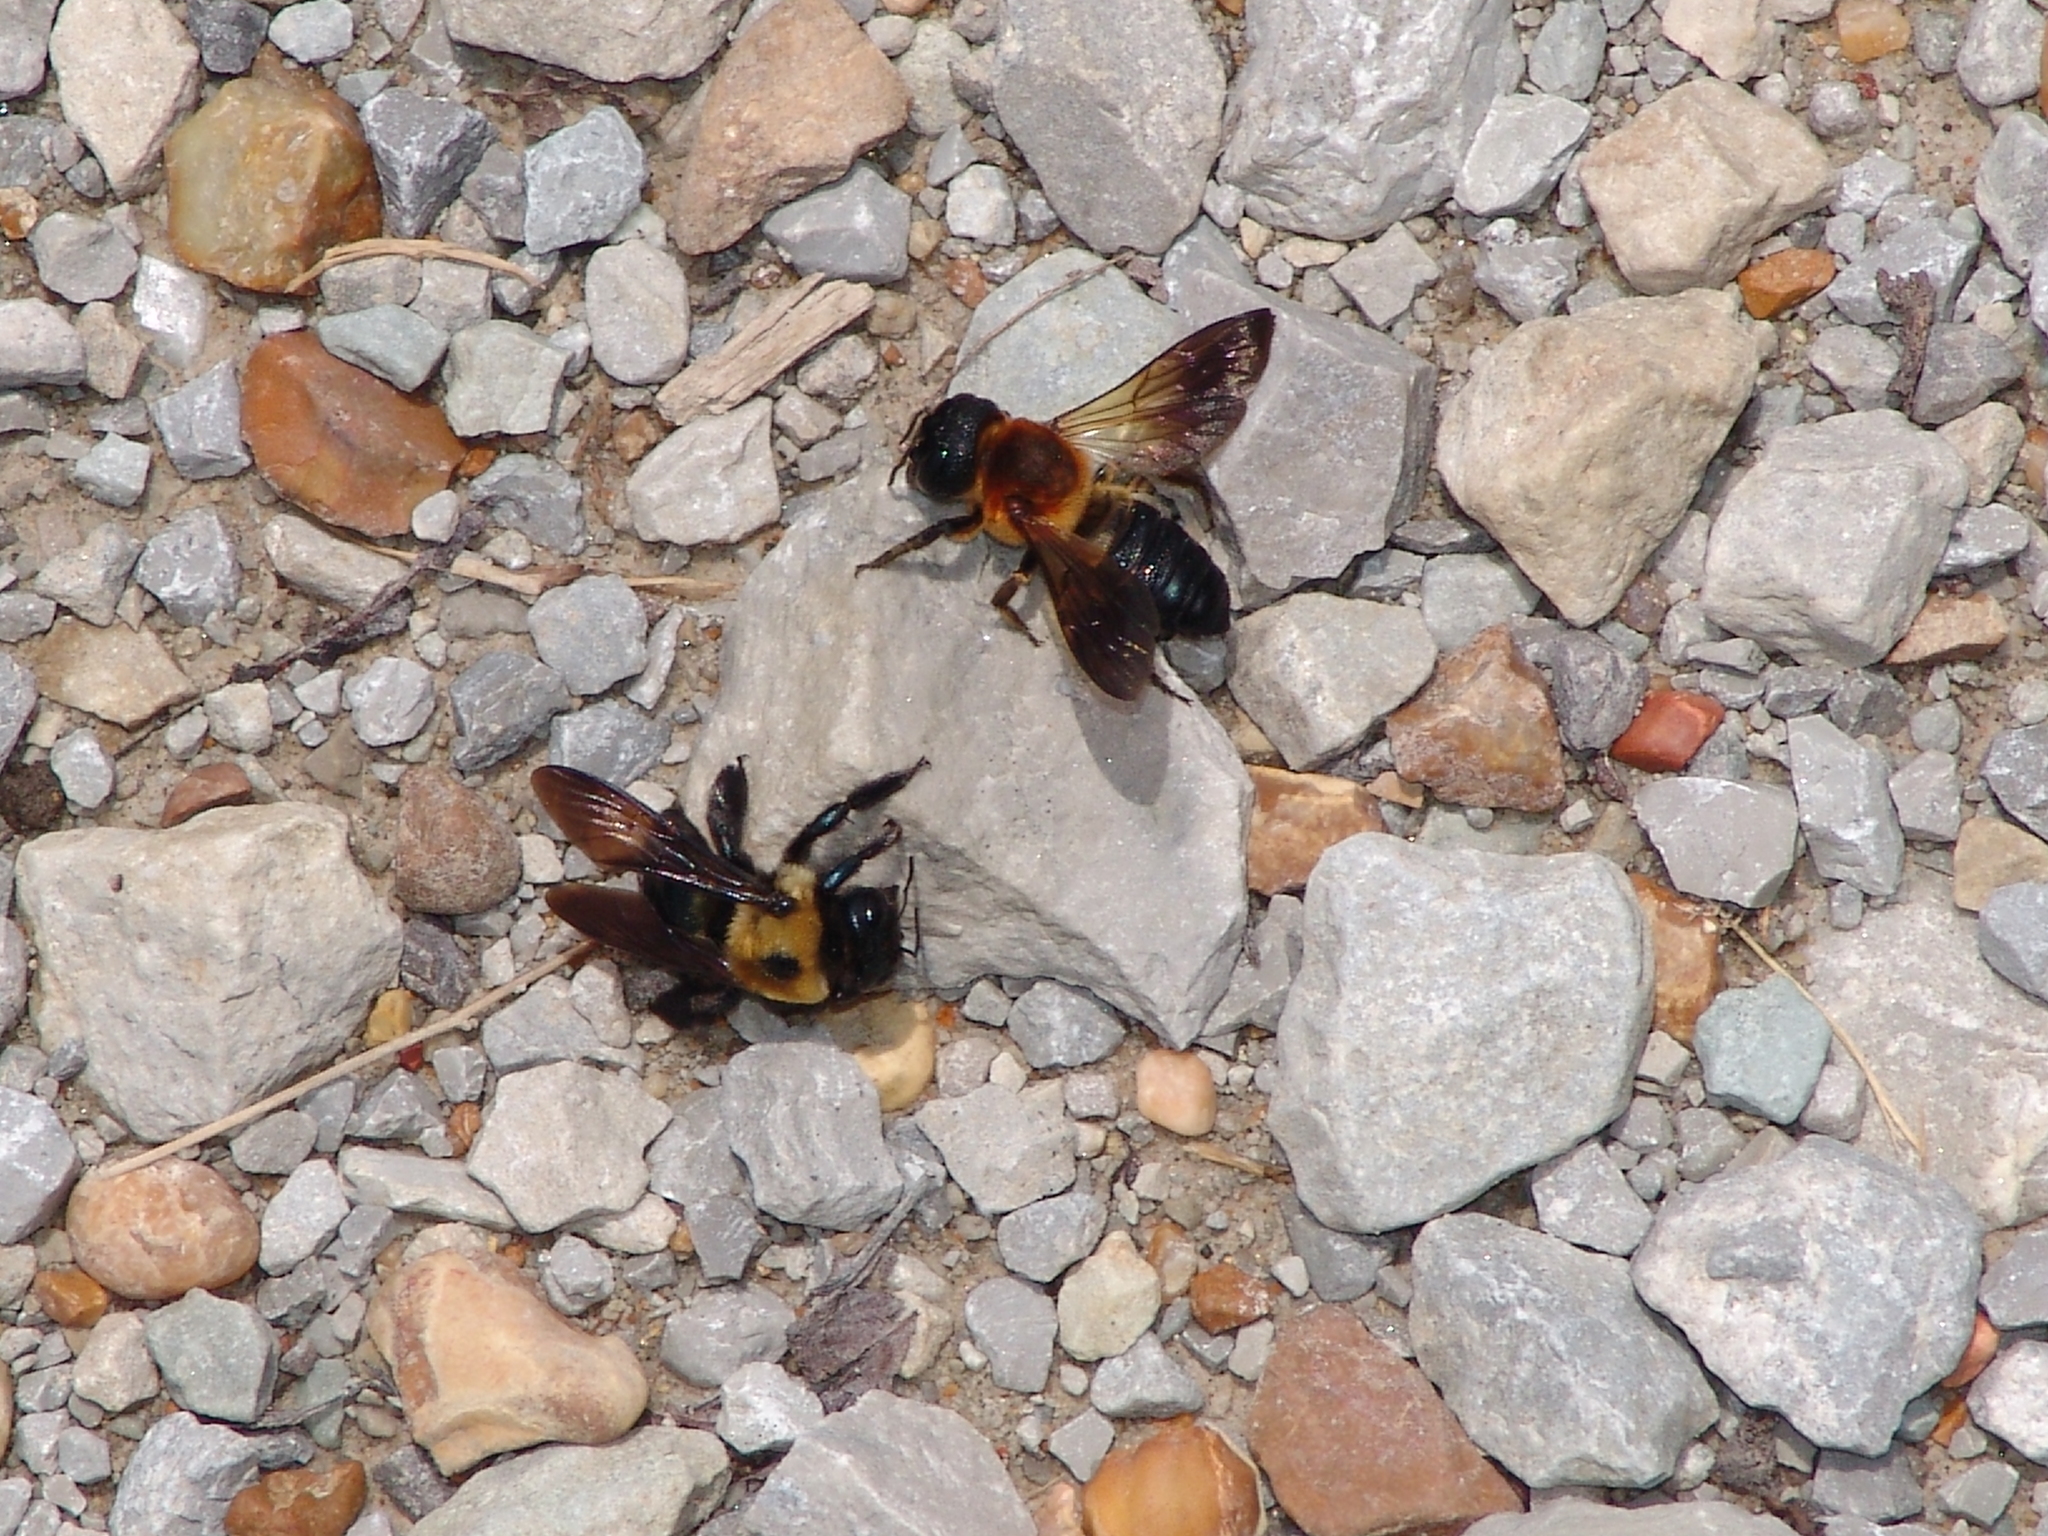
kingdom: Animalia
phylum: Arthropoda
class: Insecta
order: Hymenoptera
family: Apidae
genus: Xylocopa
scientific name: Xylocopa virginica
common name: Carpenter bee
